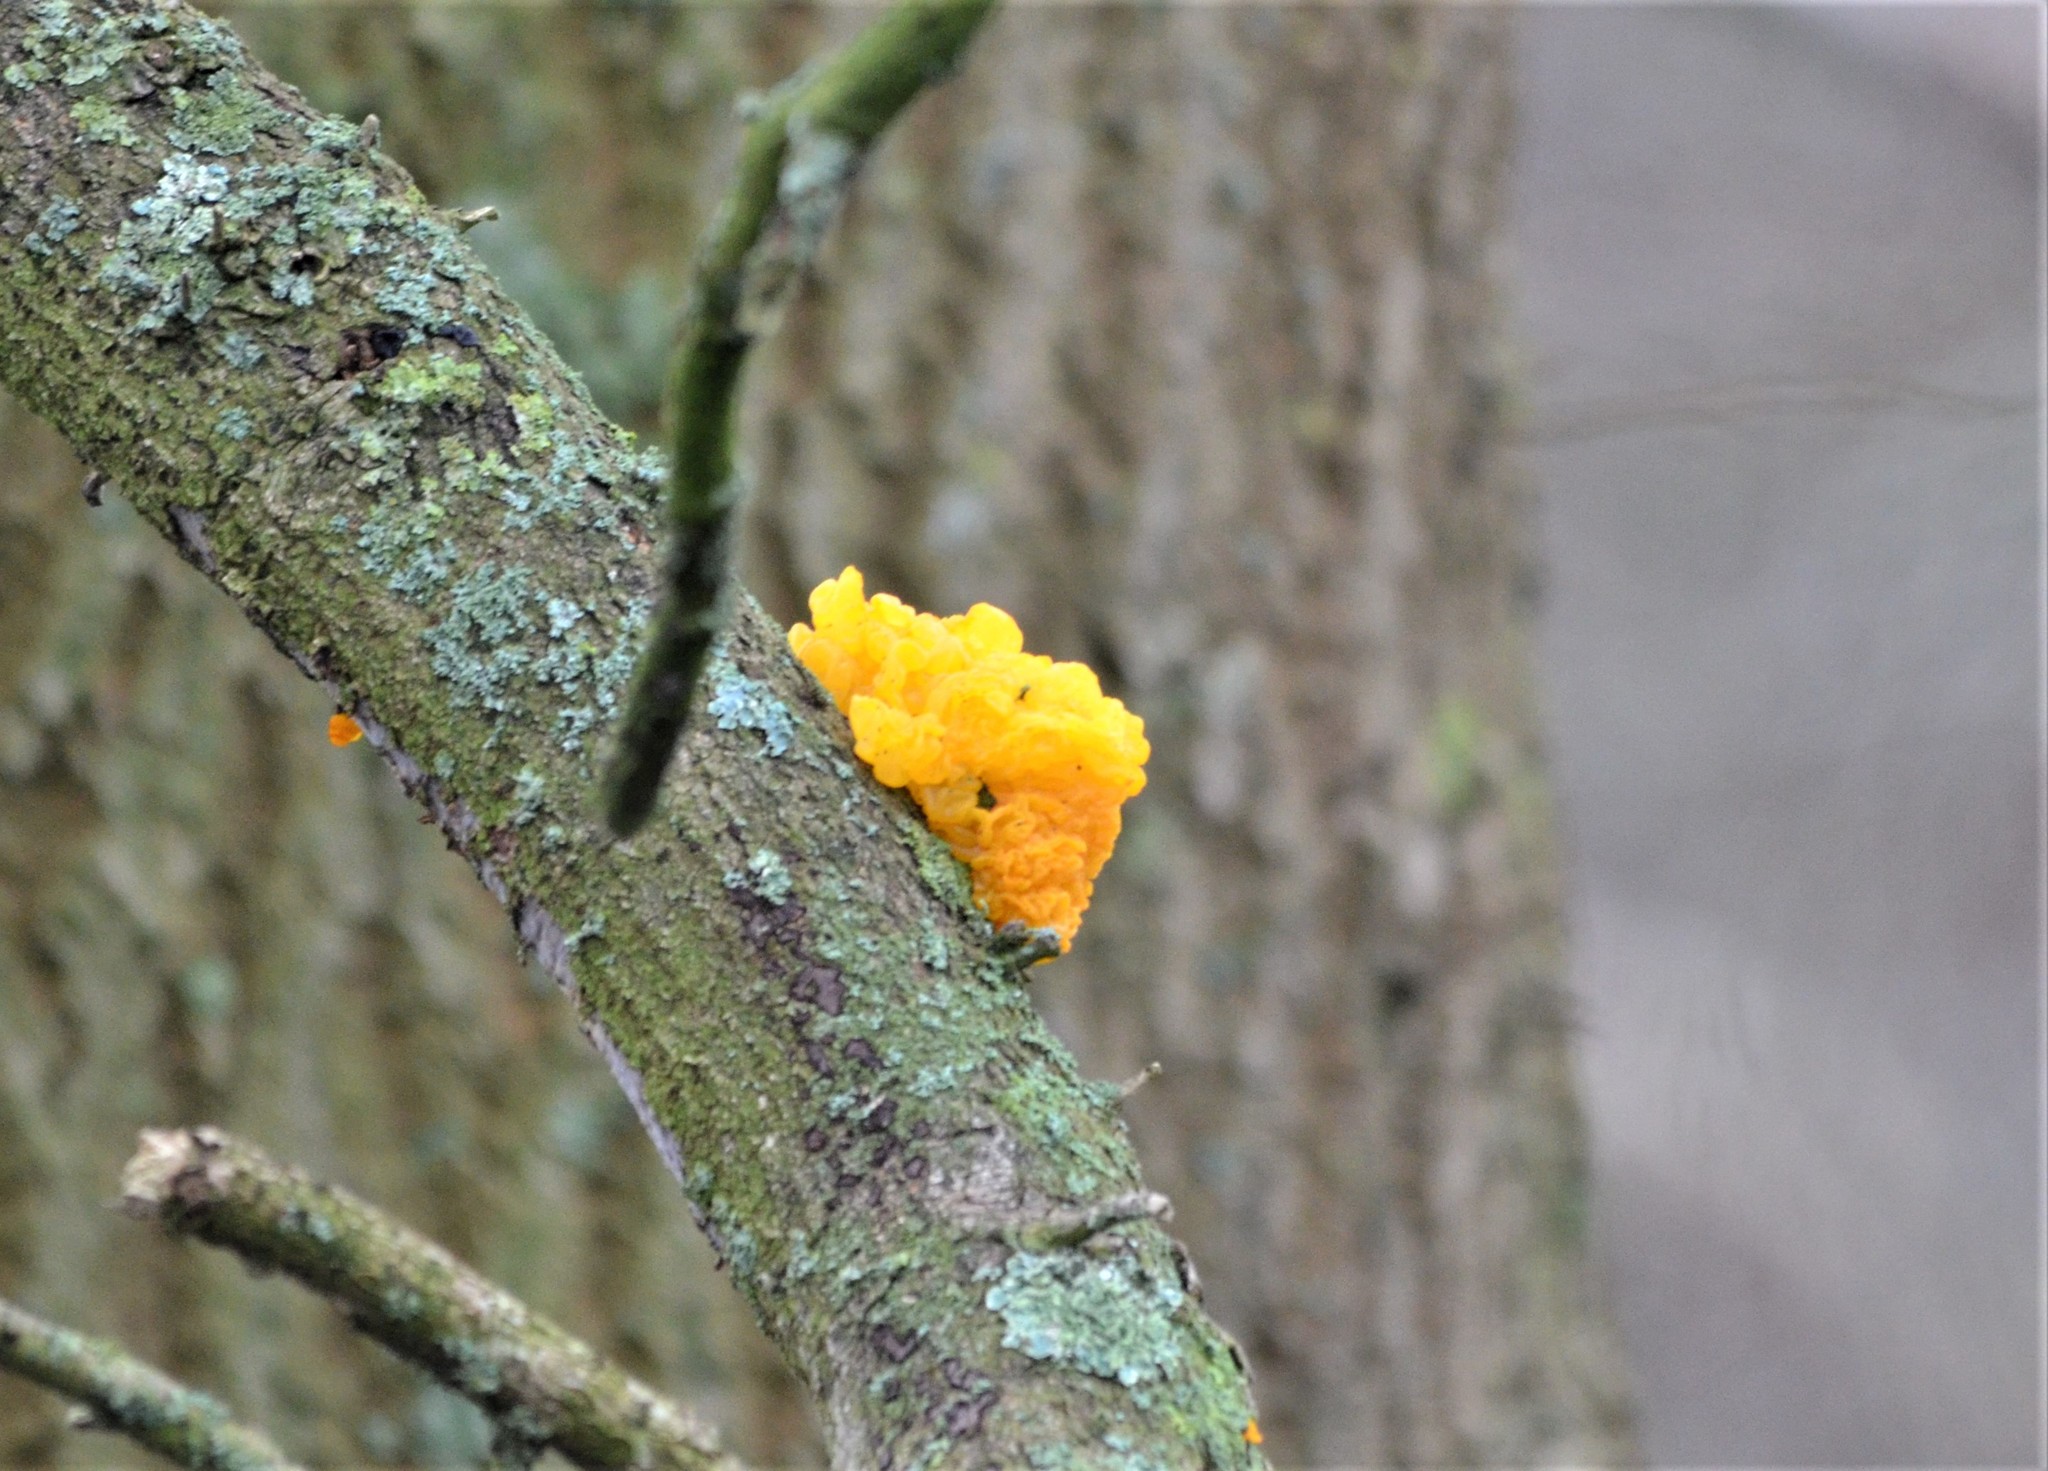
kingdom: Fungi
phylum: Basidiomycota
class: Tremellomycetes
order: Tremellales
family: Tremellaceae
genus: Tremella
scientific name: Tremella mesenterica
